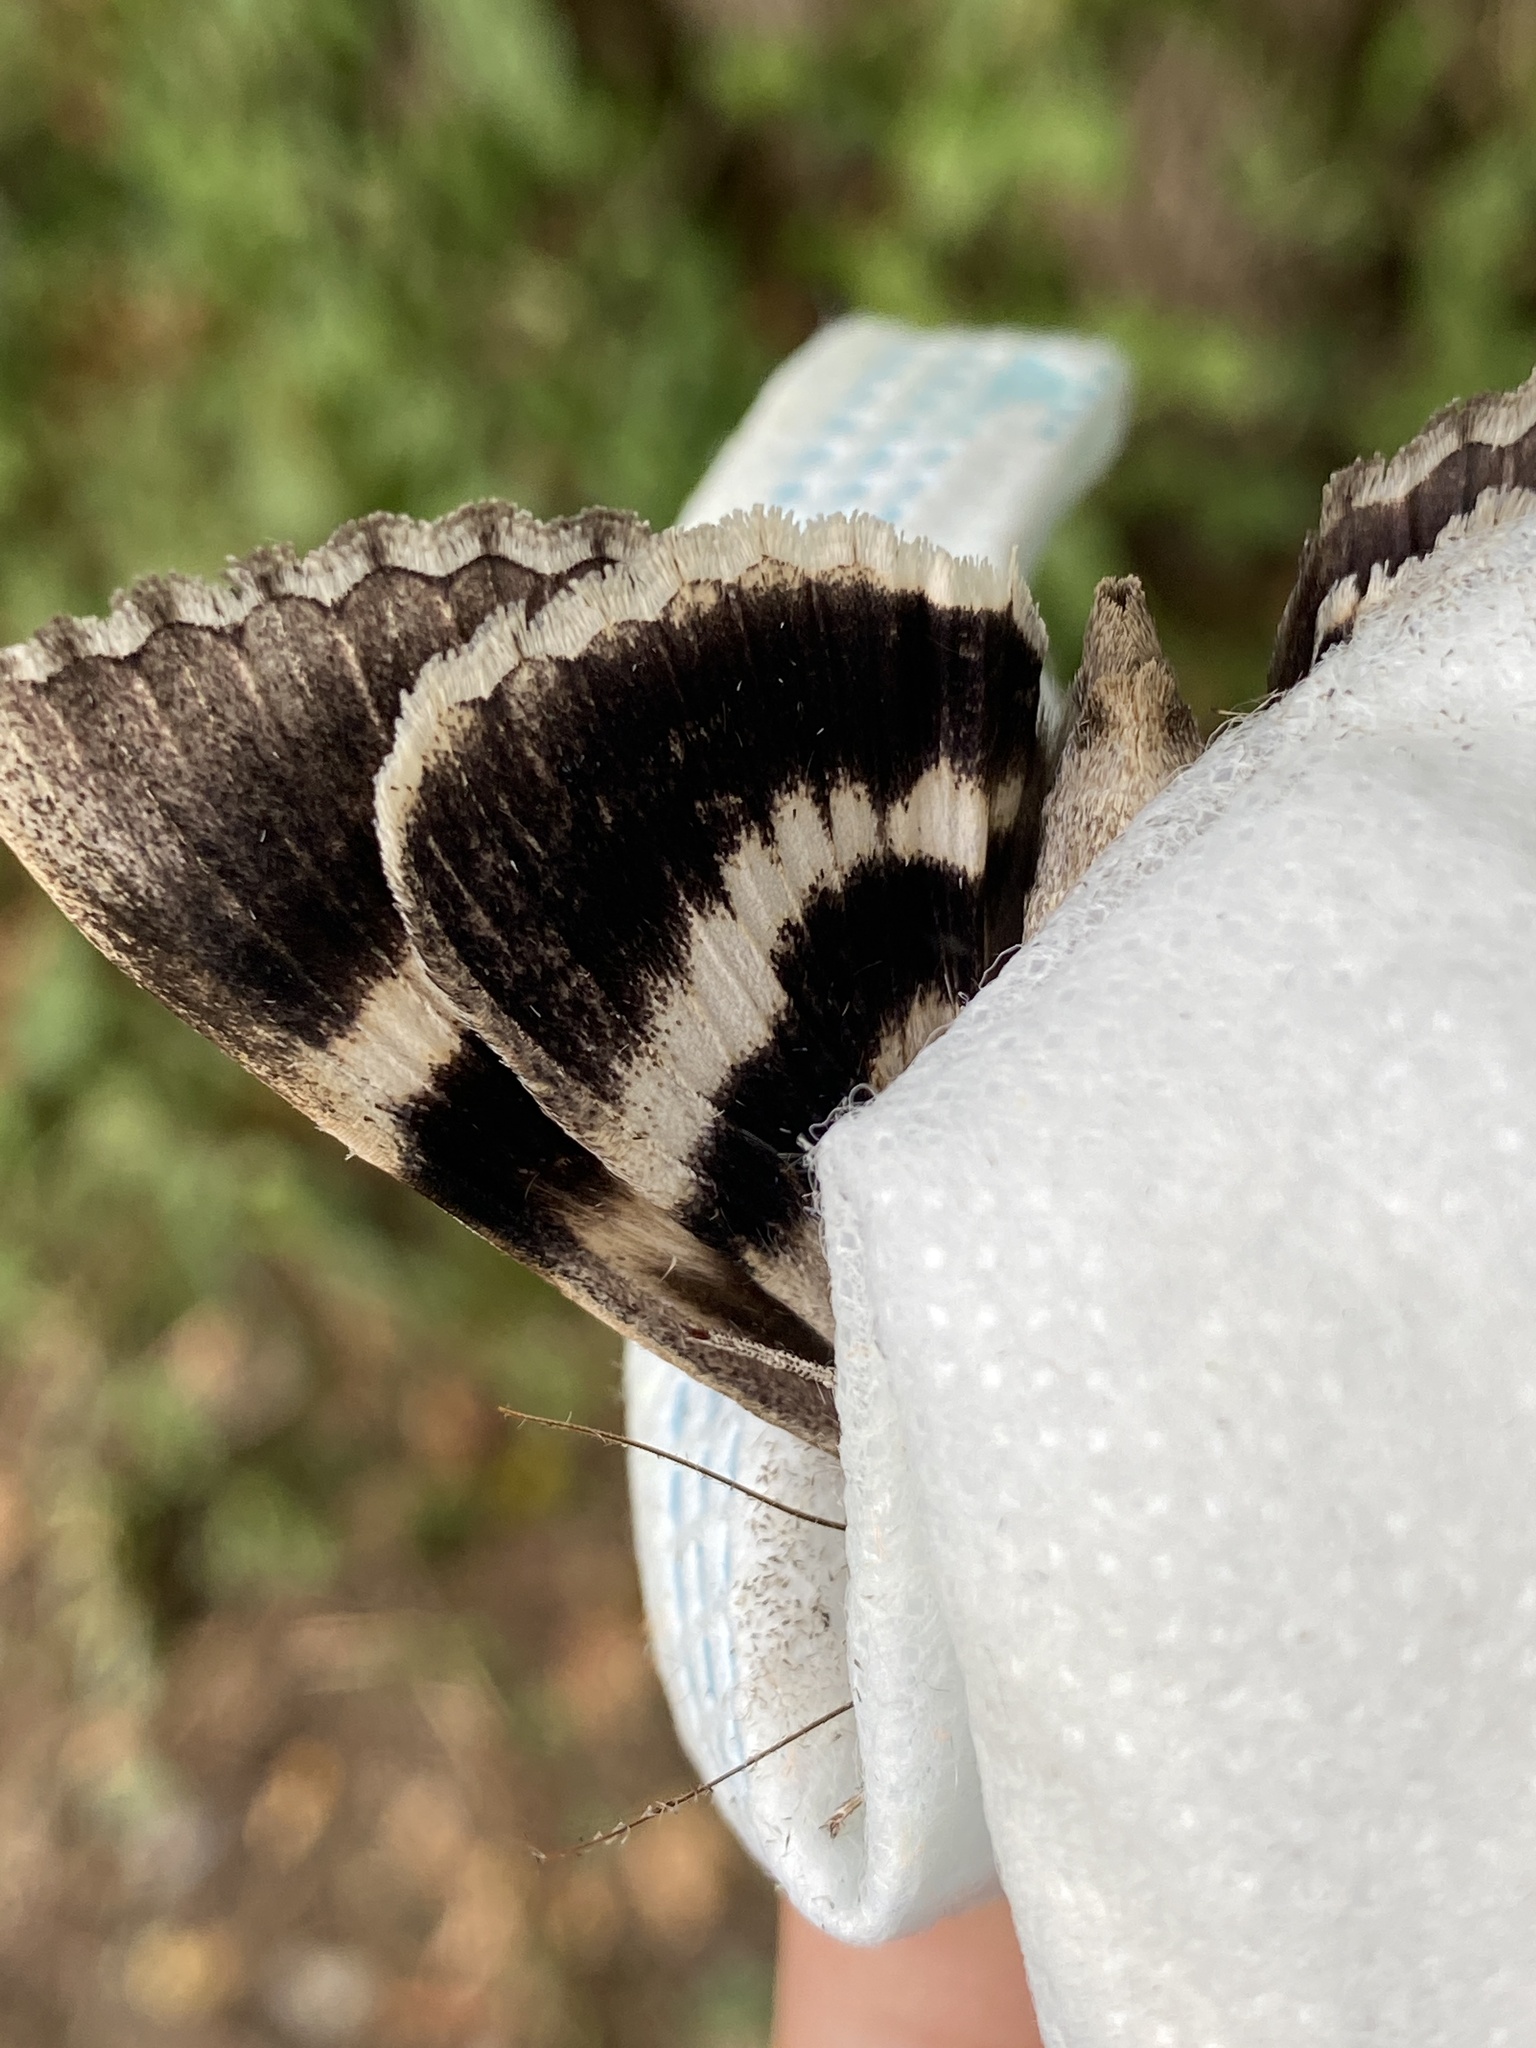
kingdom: Animalia
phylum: Arthropoda
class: Insecta
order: Lepidoptera
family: Erebidae
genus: Catocala
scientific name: Catocala vidua
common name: The widow
